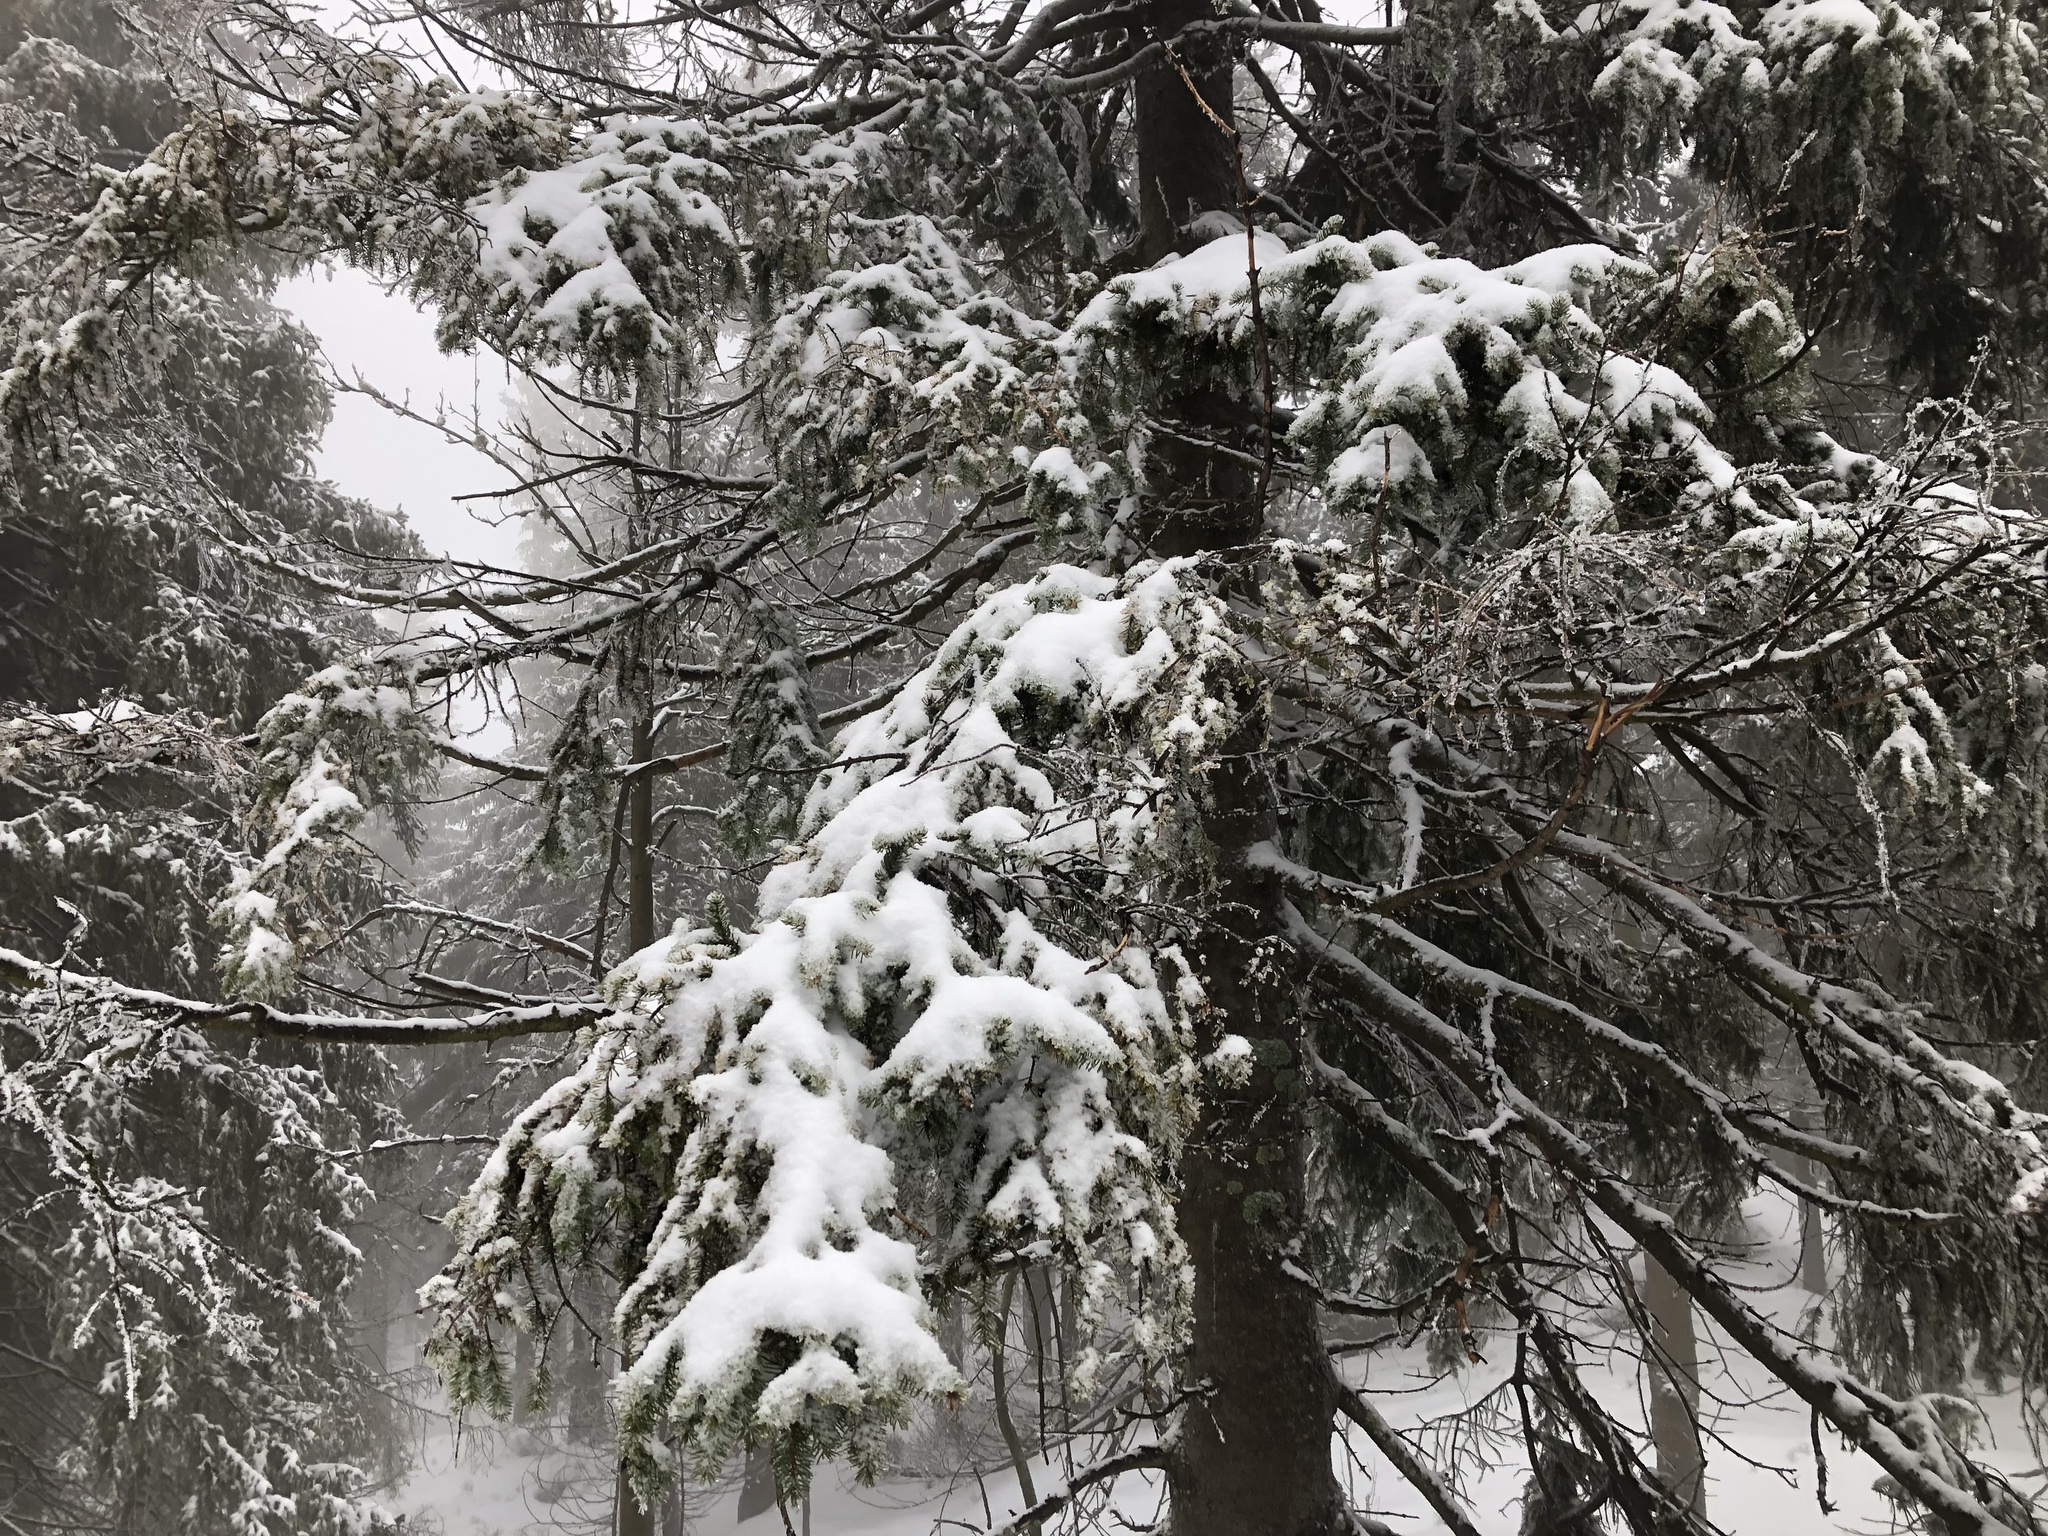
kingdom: Plantae
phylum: Tracheophyta
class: Pinopsida
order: Pinales
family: Pinaceae
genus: Picea
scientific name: Picea abies
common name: Norway spruce
